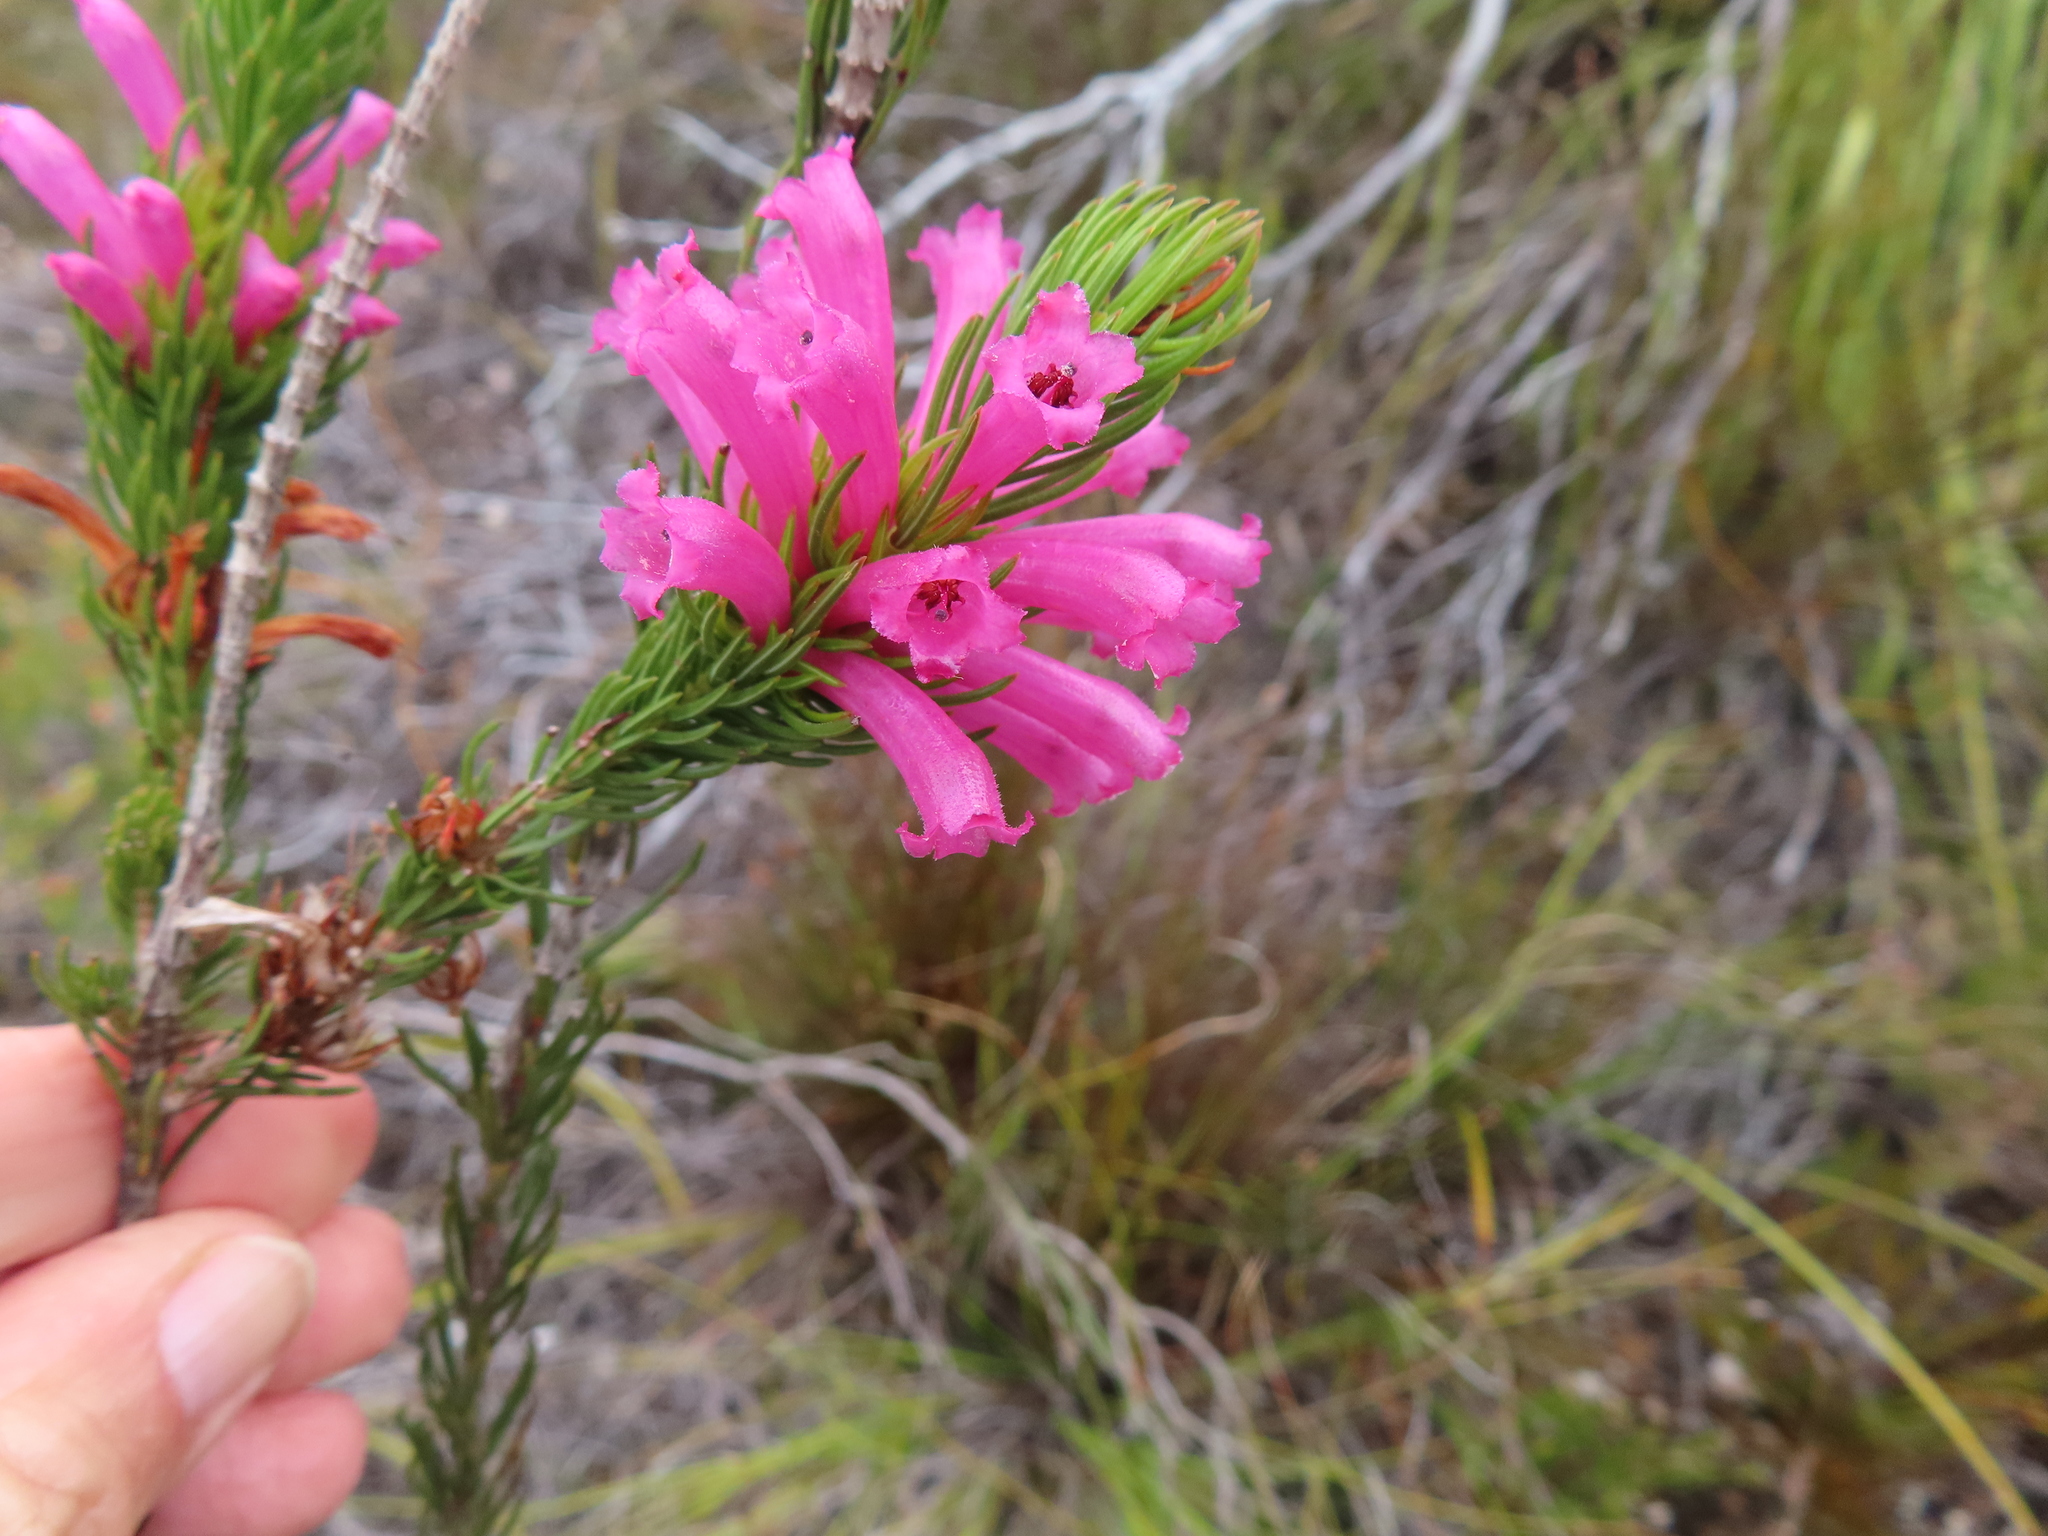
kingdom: Plantae
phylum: Tracheophyta
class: Magnoliopsida
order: Ericales
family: Ericaceae
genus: Erica
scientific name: Erica viscaria
